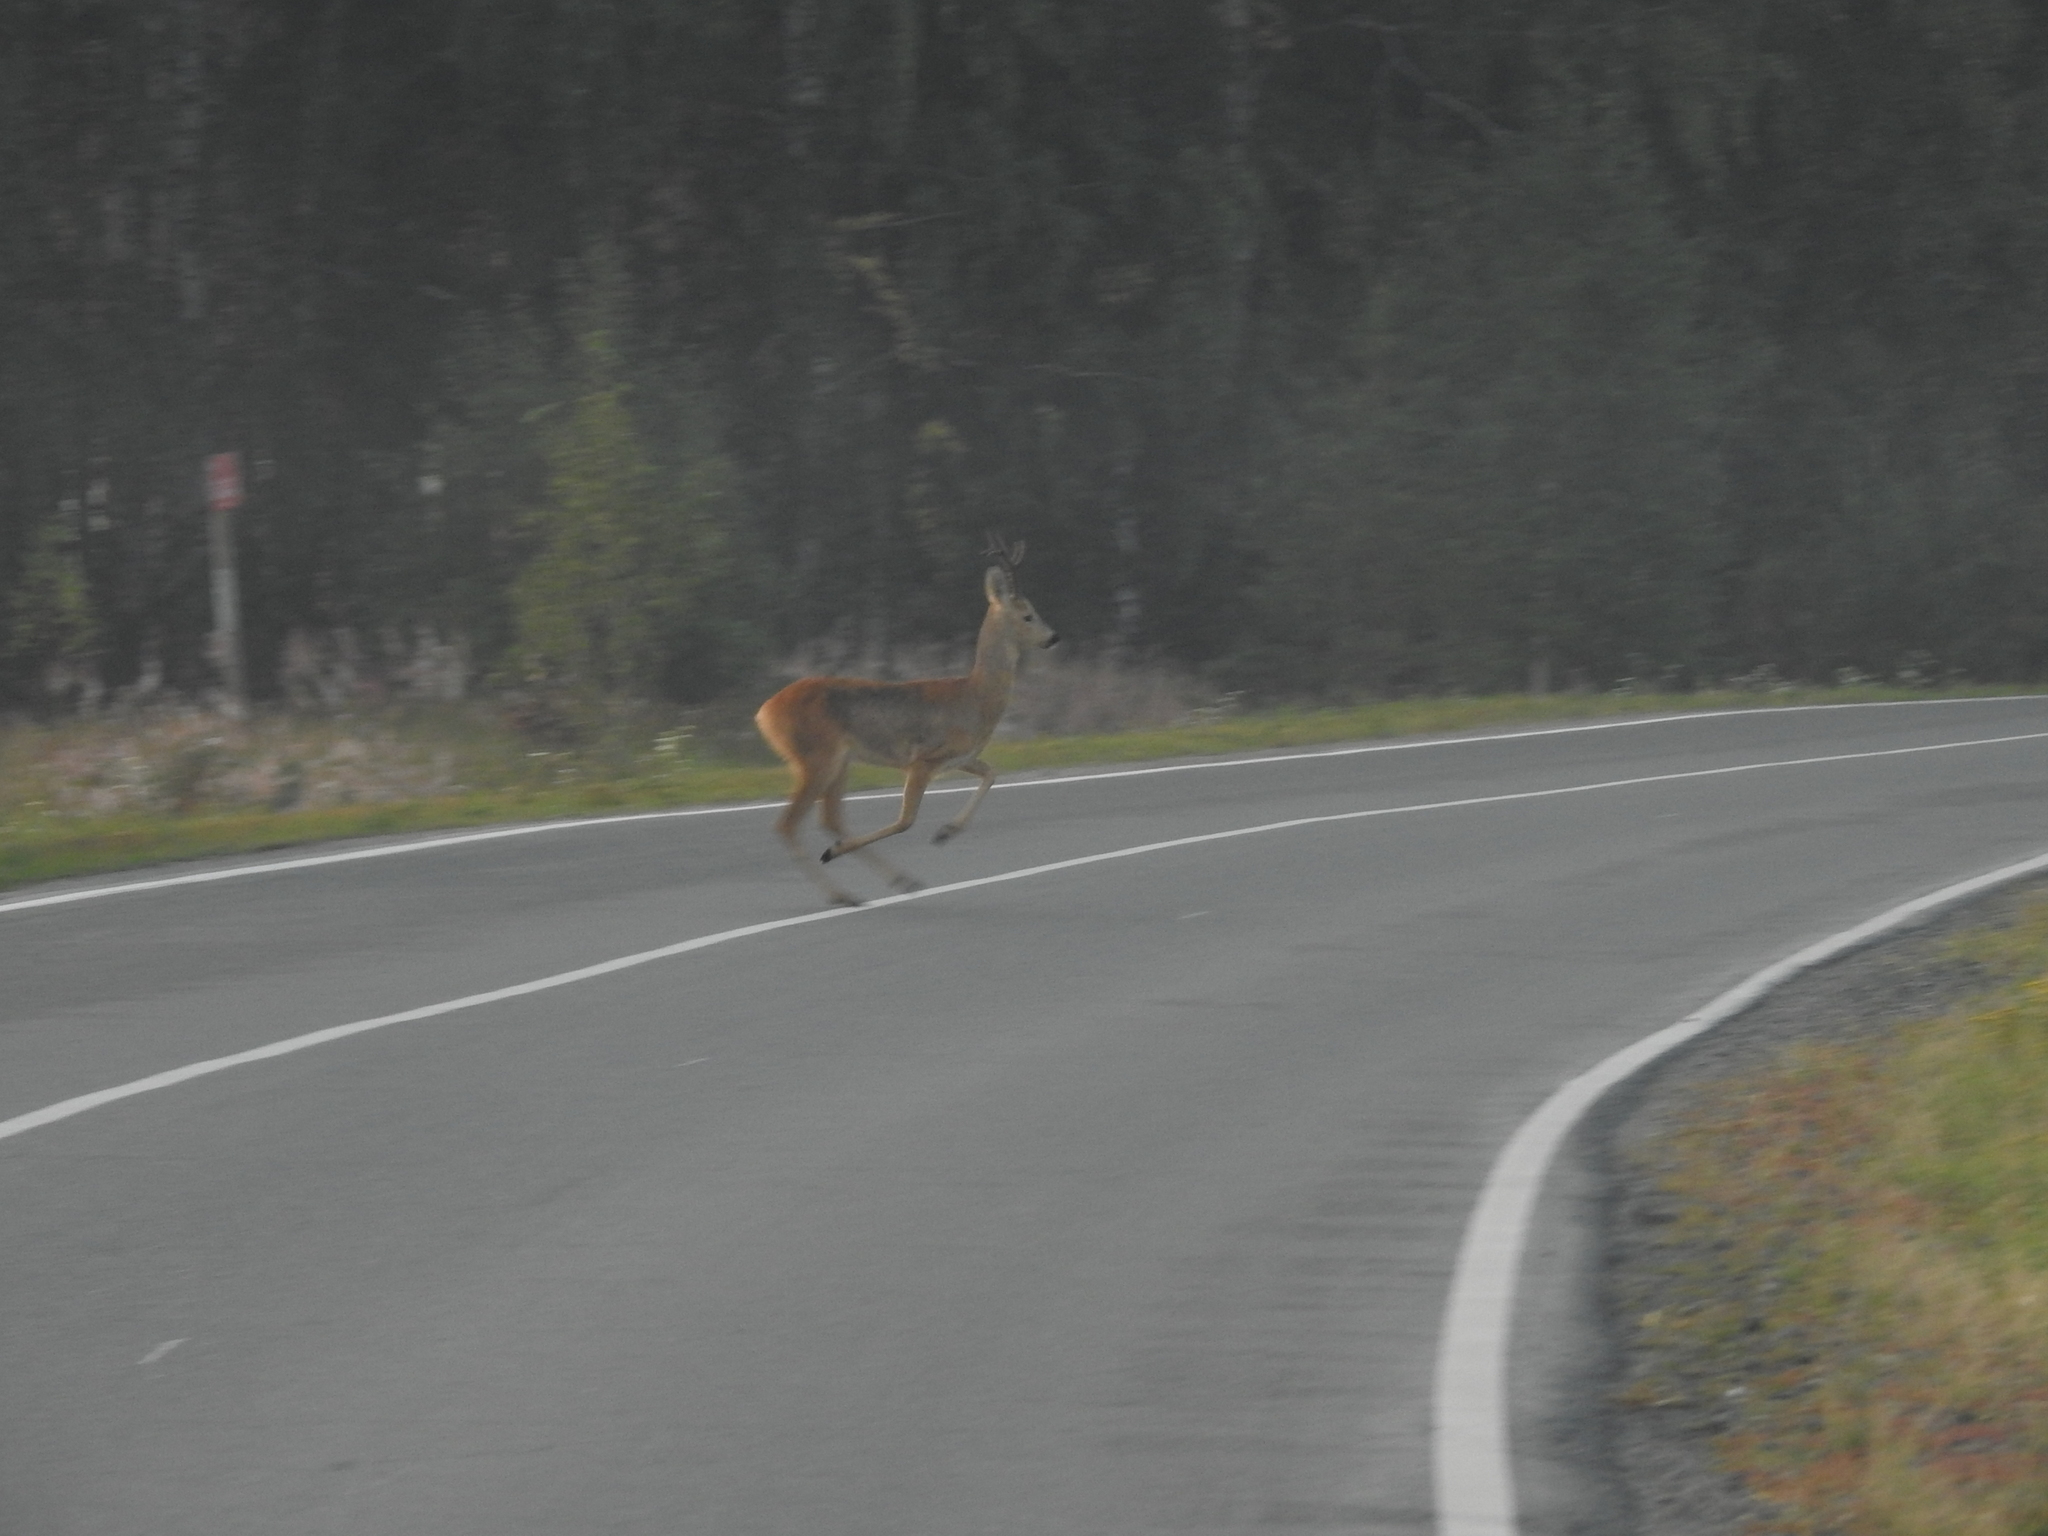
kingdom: Animalia
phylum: Chordata
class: Mammalia
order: Artiodactyla
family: Cervidae
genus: Capreolus
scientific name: Capreolus pygargus
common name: Siberian roe
